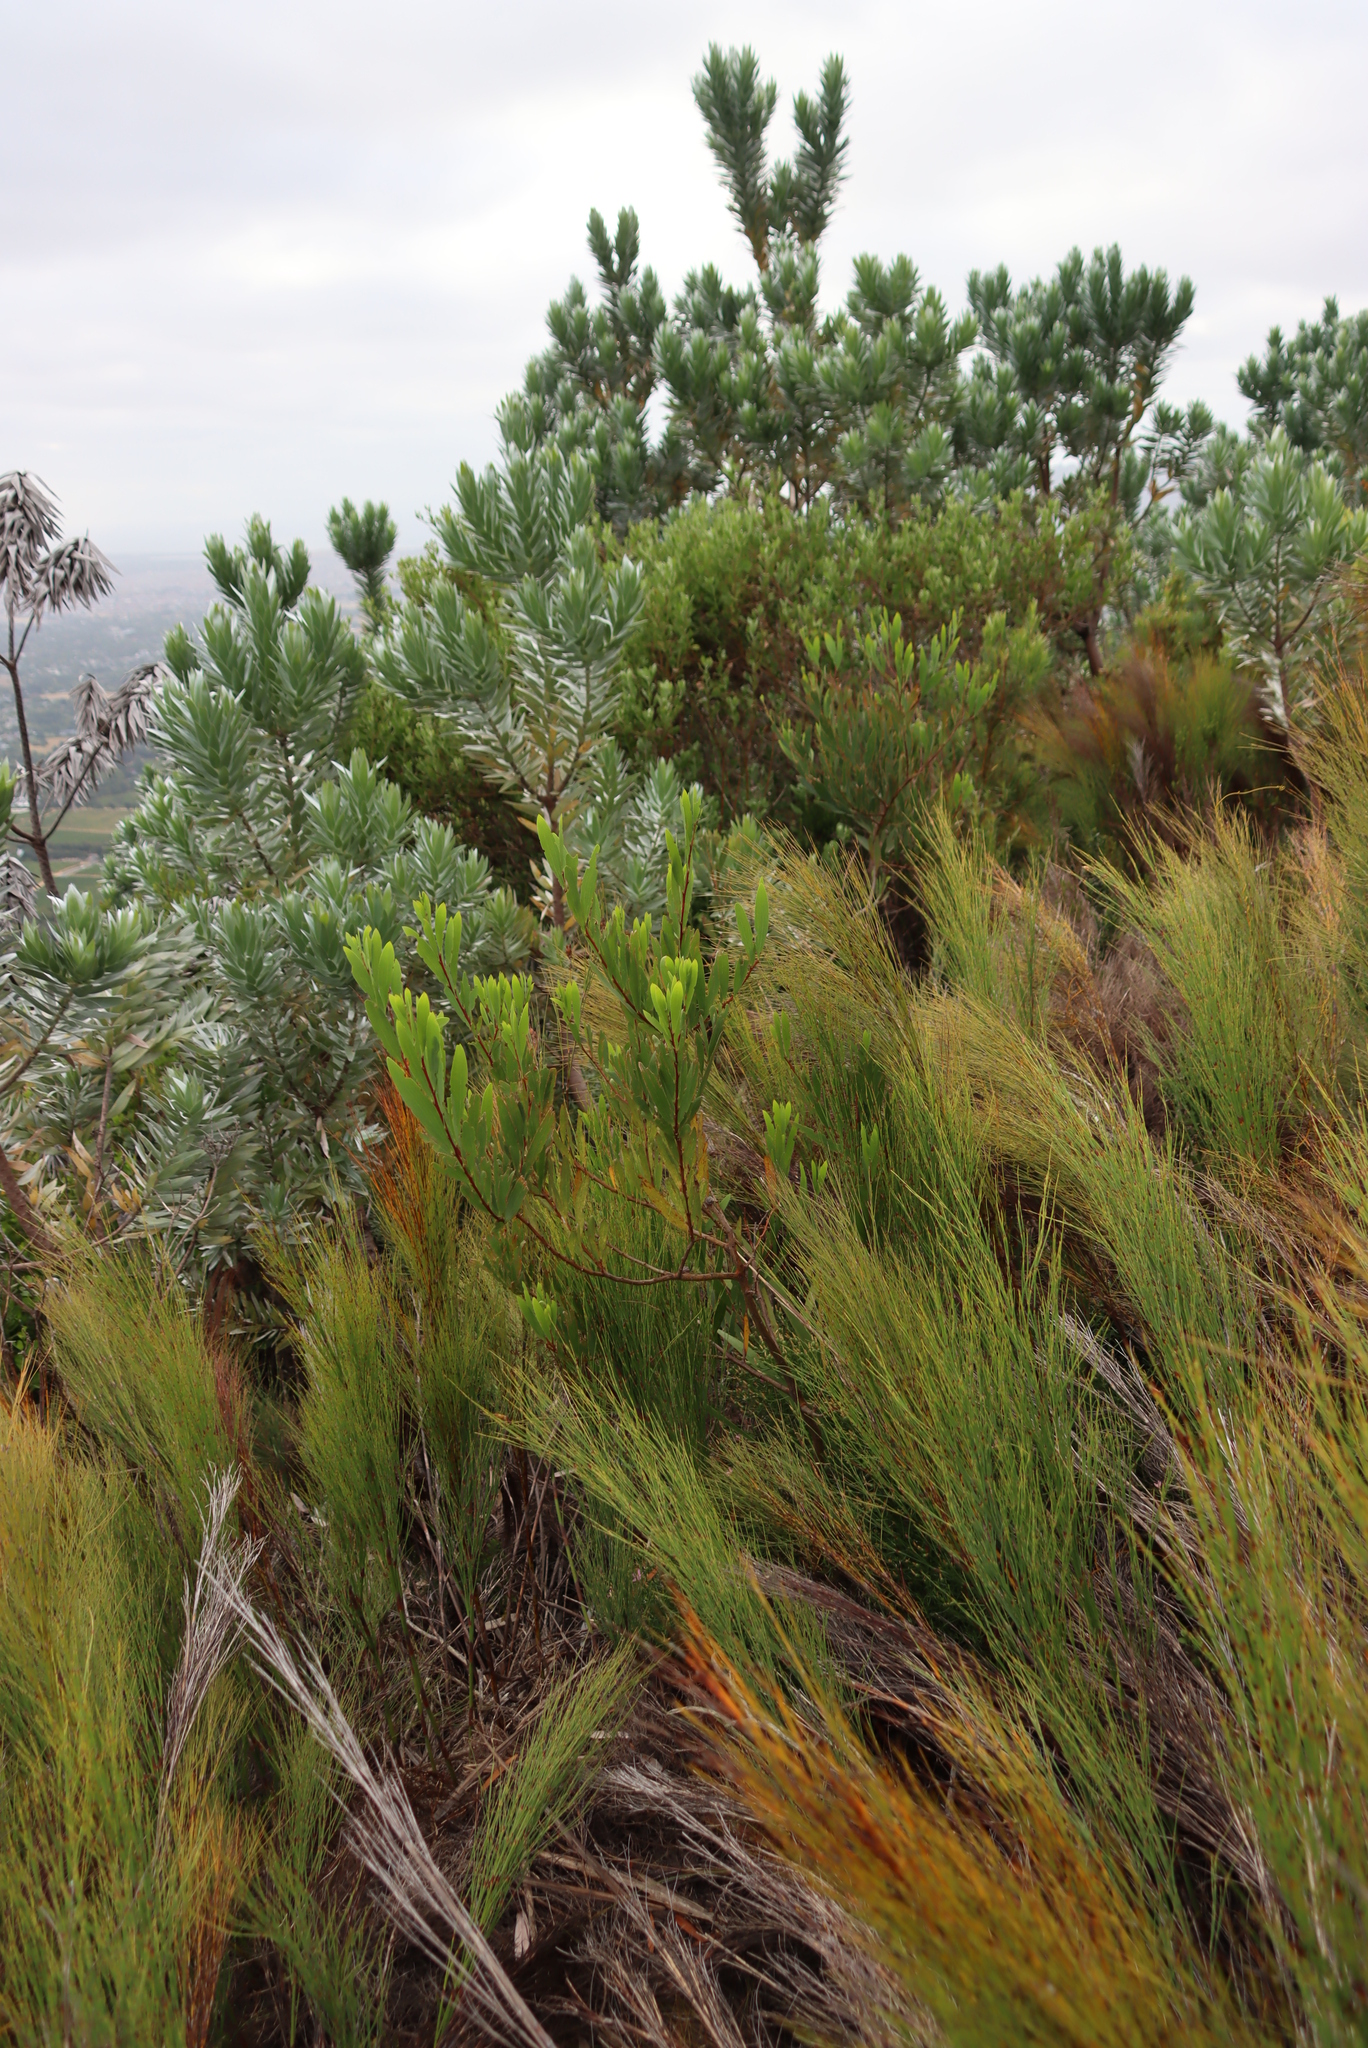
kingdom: Plantae
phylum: Tracheophyta
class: Magnoliopsida
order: Fabales
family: Fabaceae
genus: Acacia
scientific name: Acacia longifolia
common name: Sydney golden wattle
